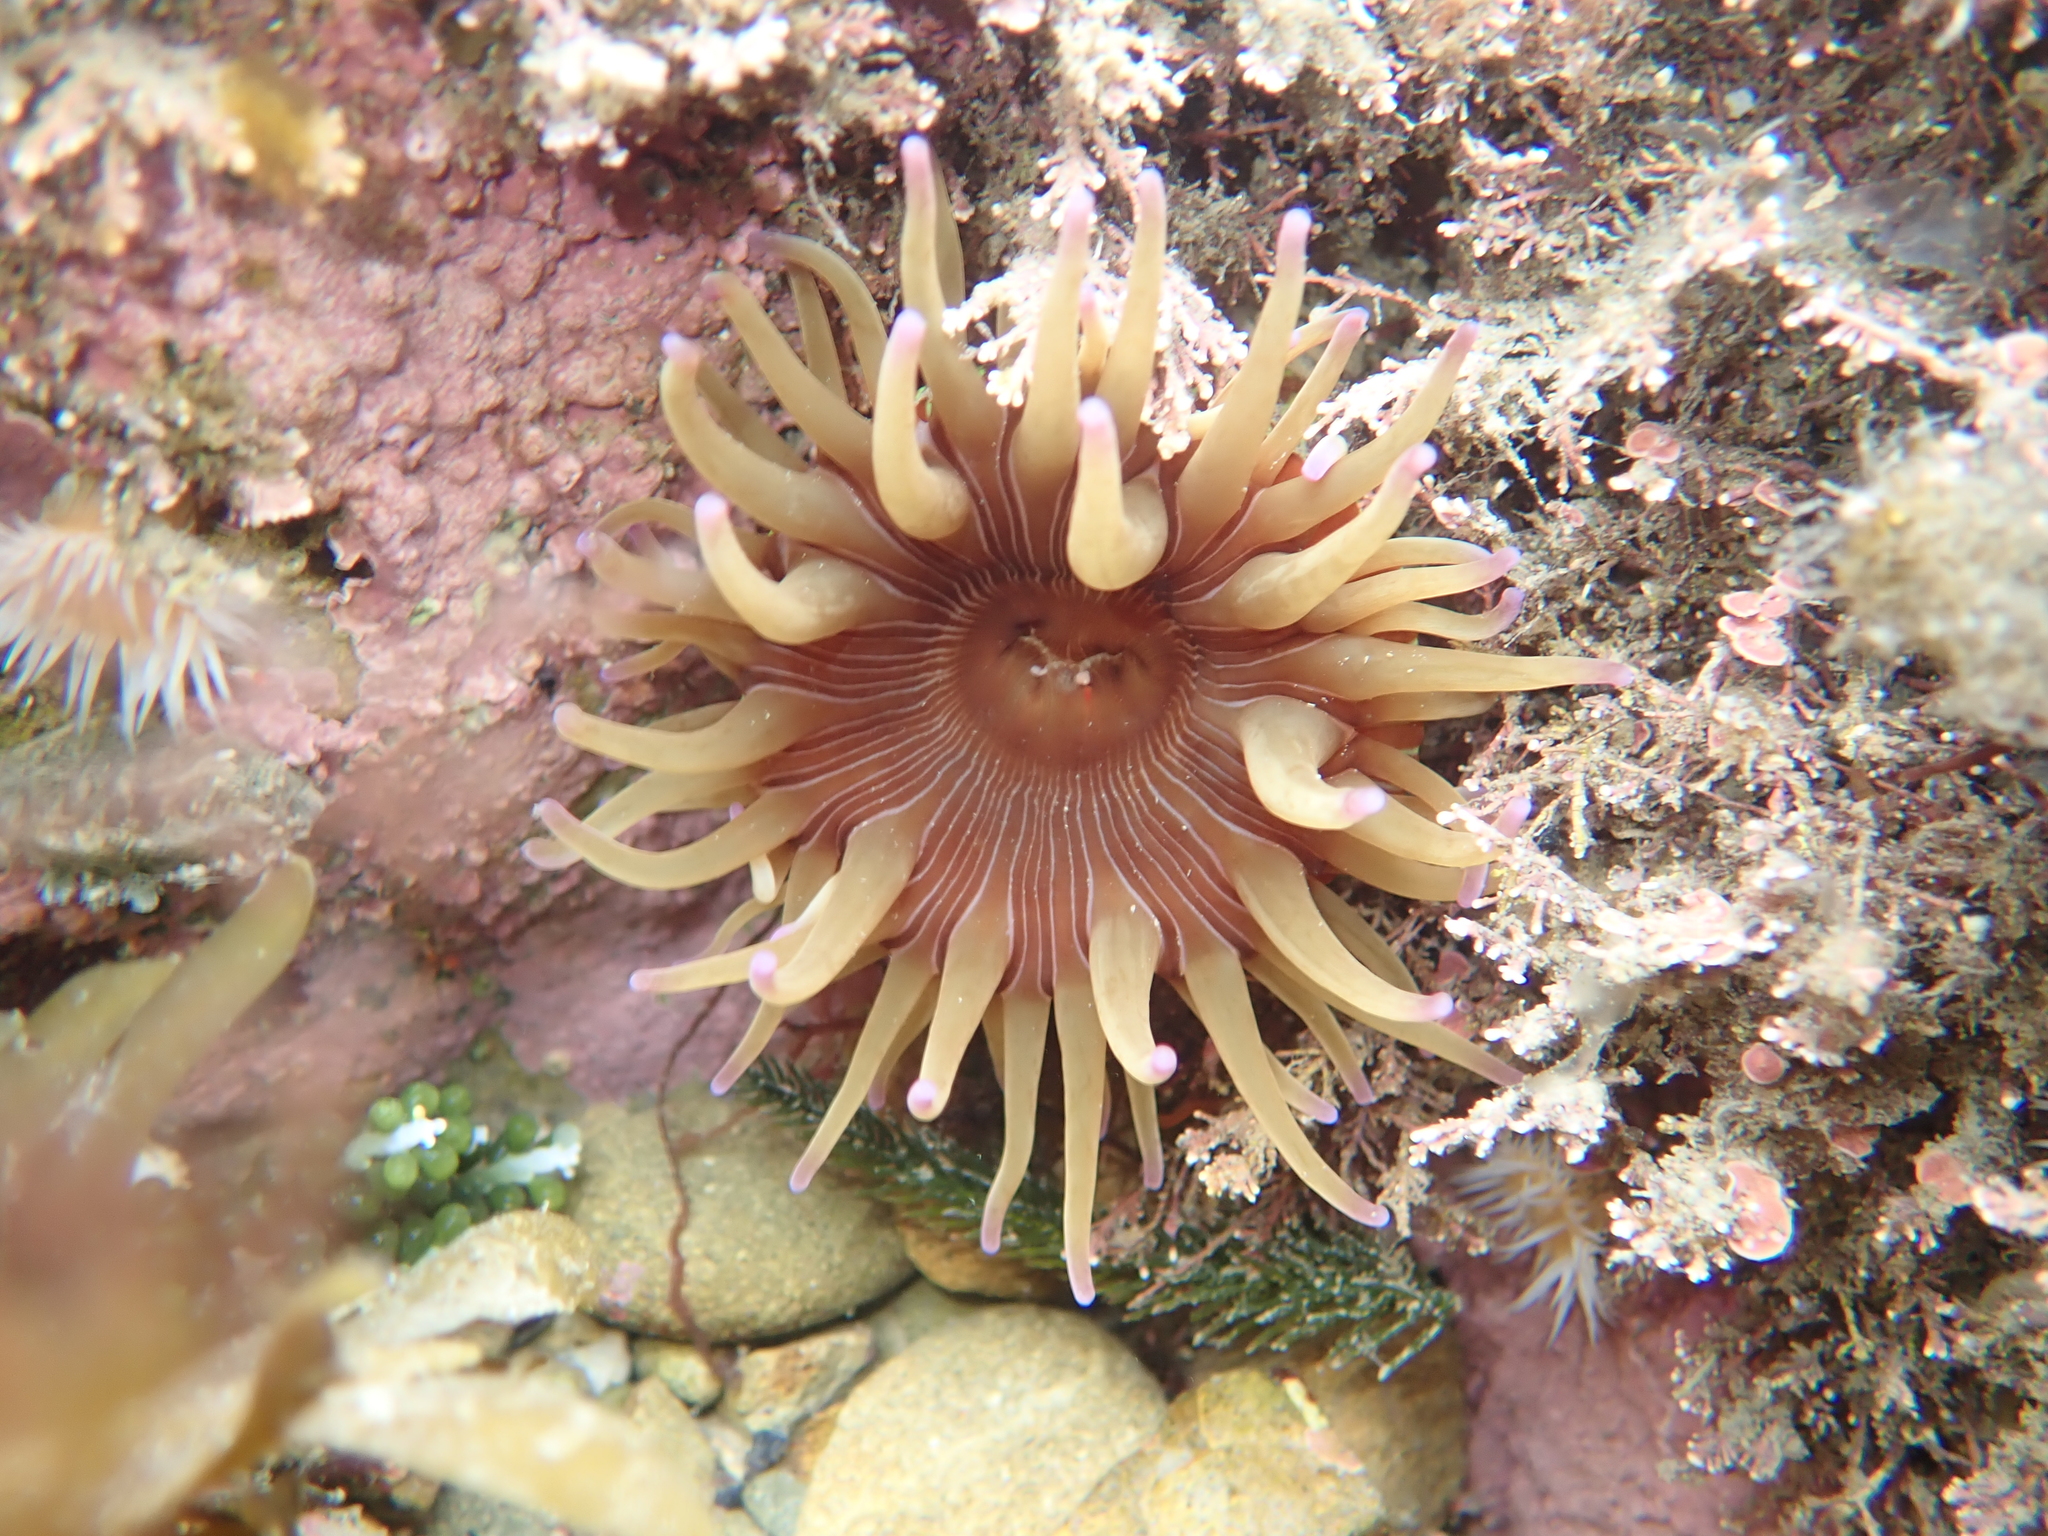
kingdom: Animalia
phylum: Cnidaria
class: Anthozoa
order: Actiniaria
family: Actiniidae
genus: Epiactis
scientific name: Epiactis thompsoni
